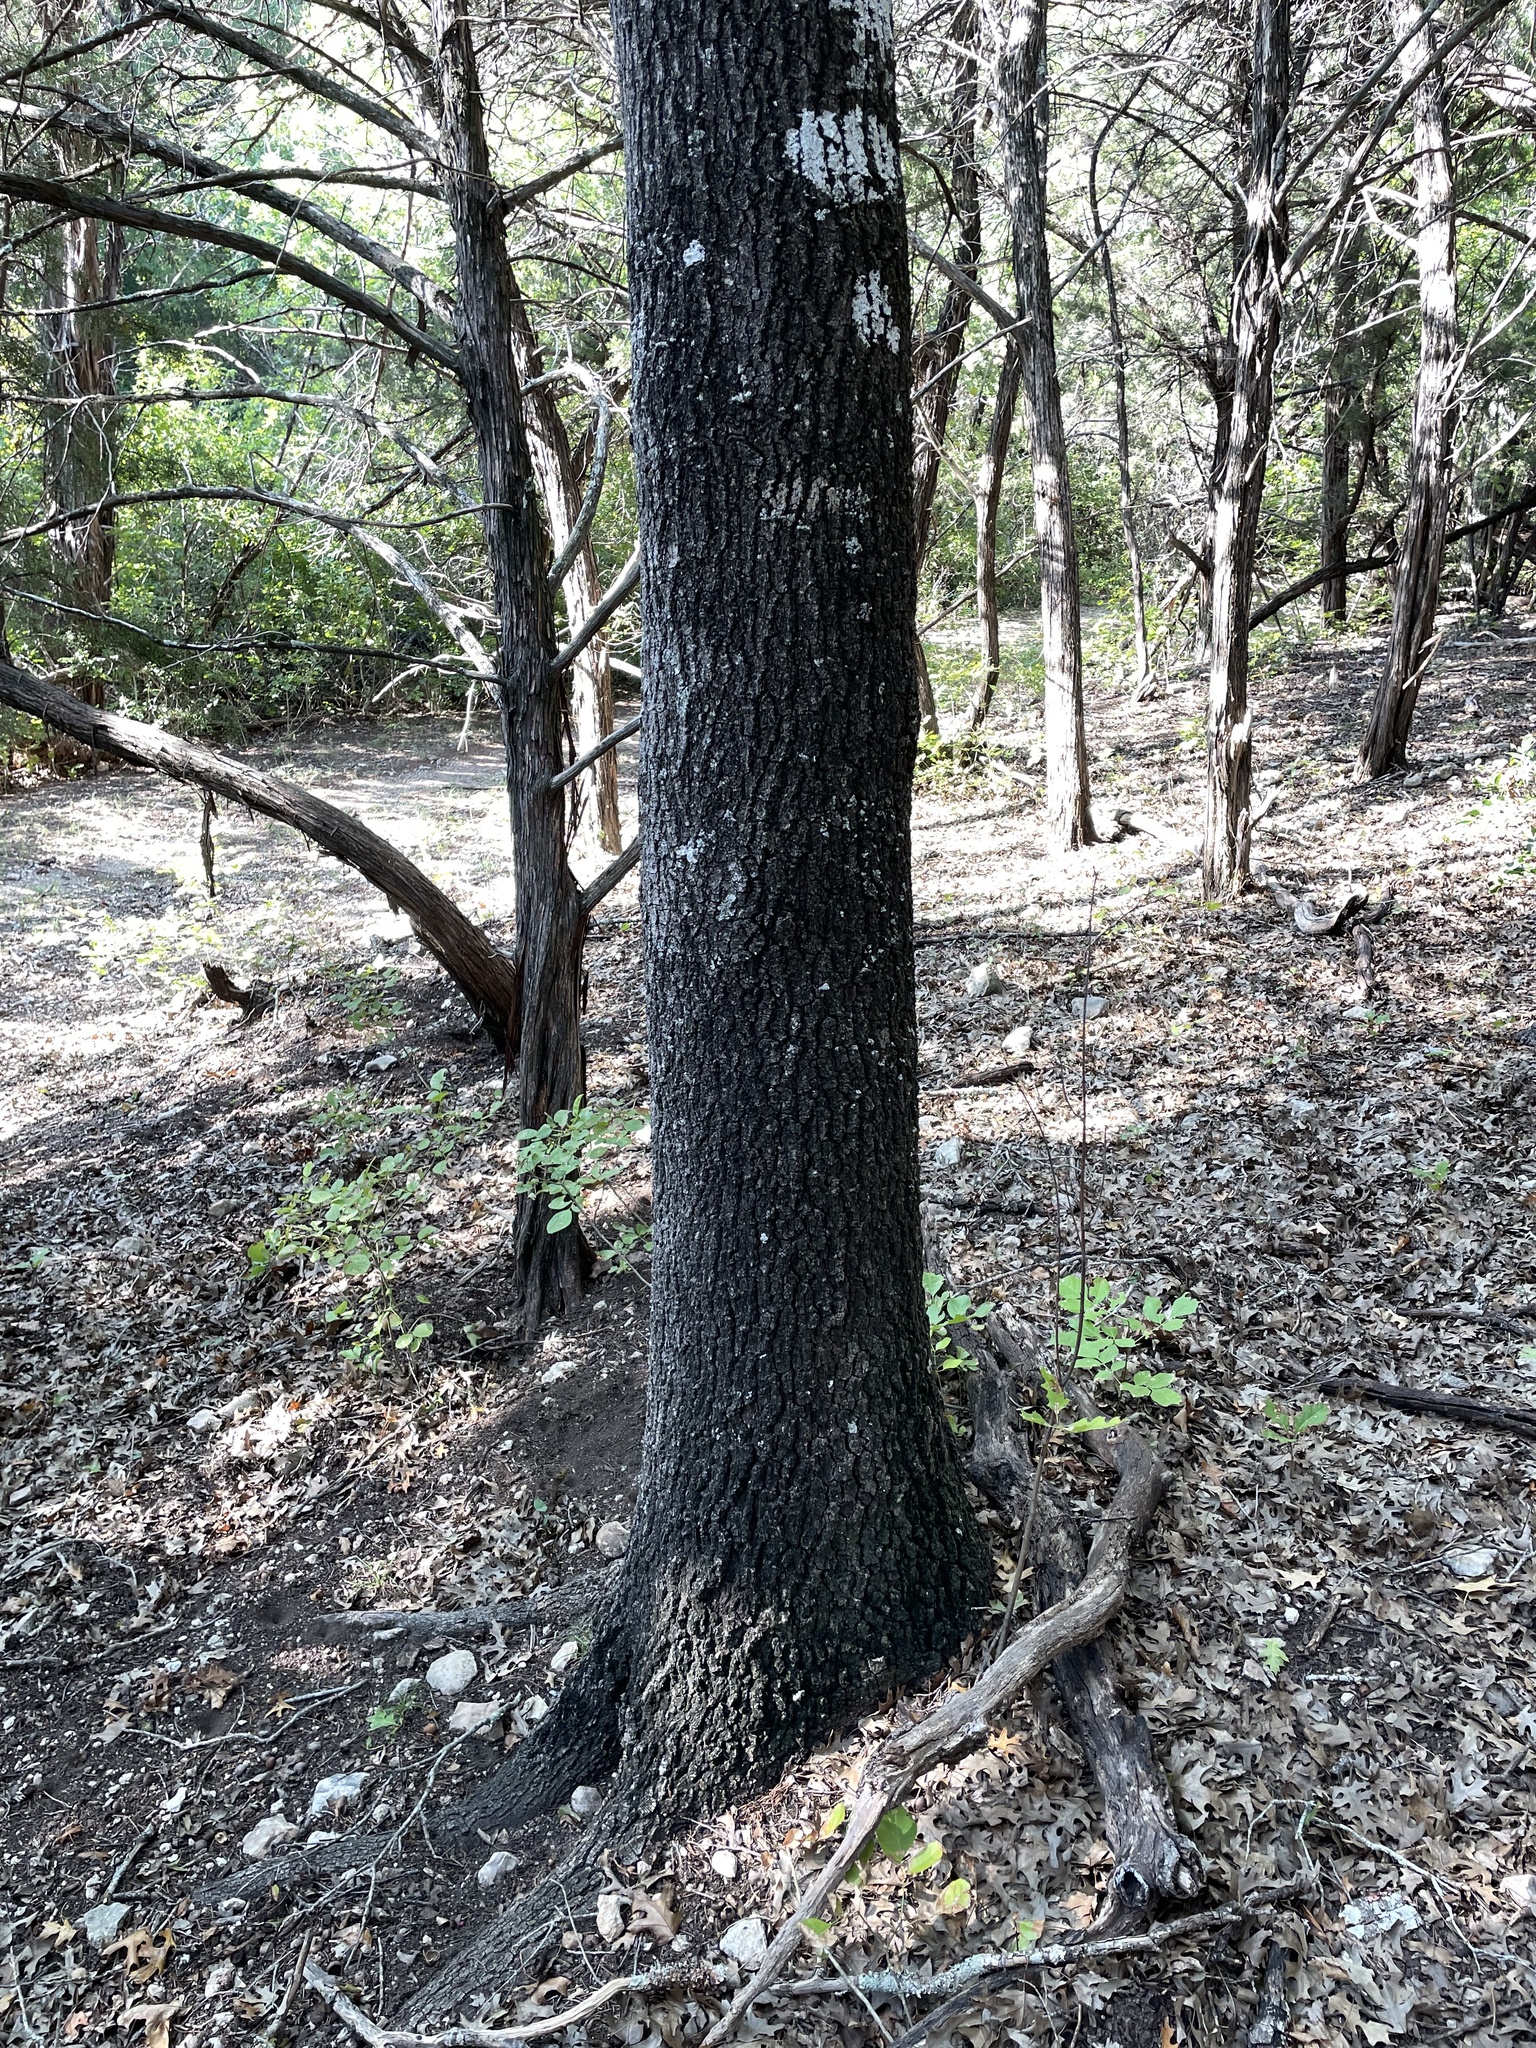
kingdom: Plantae
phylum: Tracheophyta
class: Magnoliopsida
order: Fagales
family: Fagaceae
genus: Quercus
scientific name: Quercus buckleyi
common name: Buckley oak
